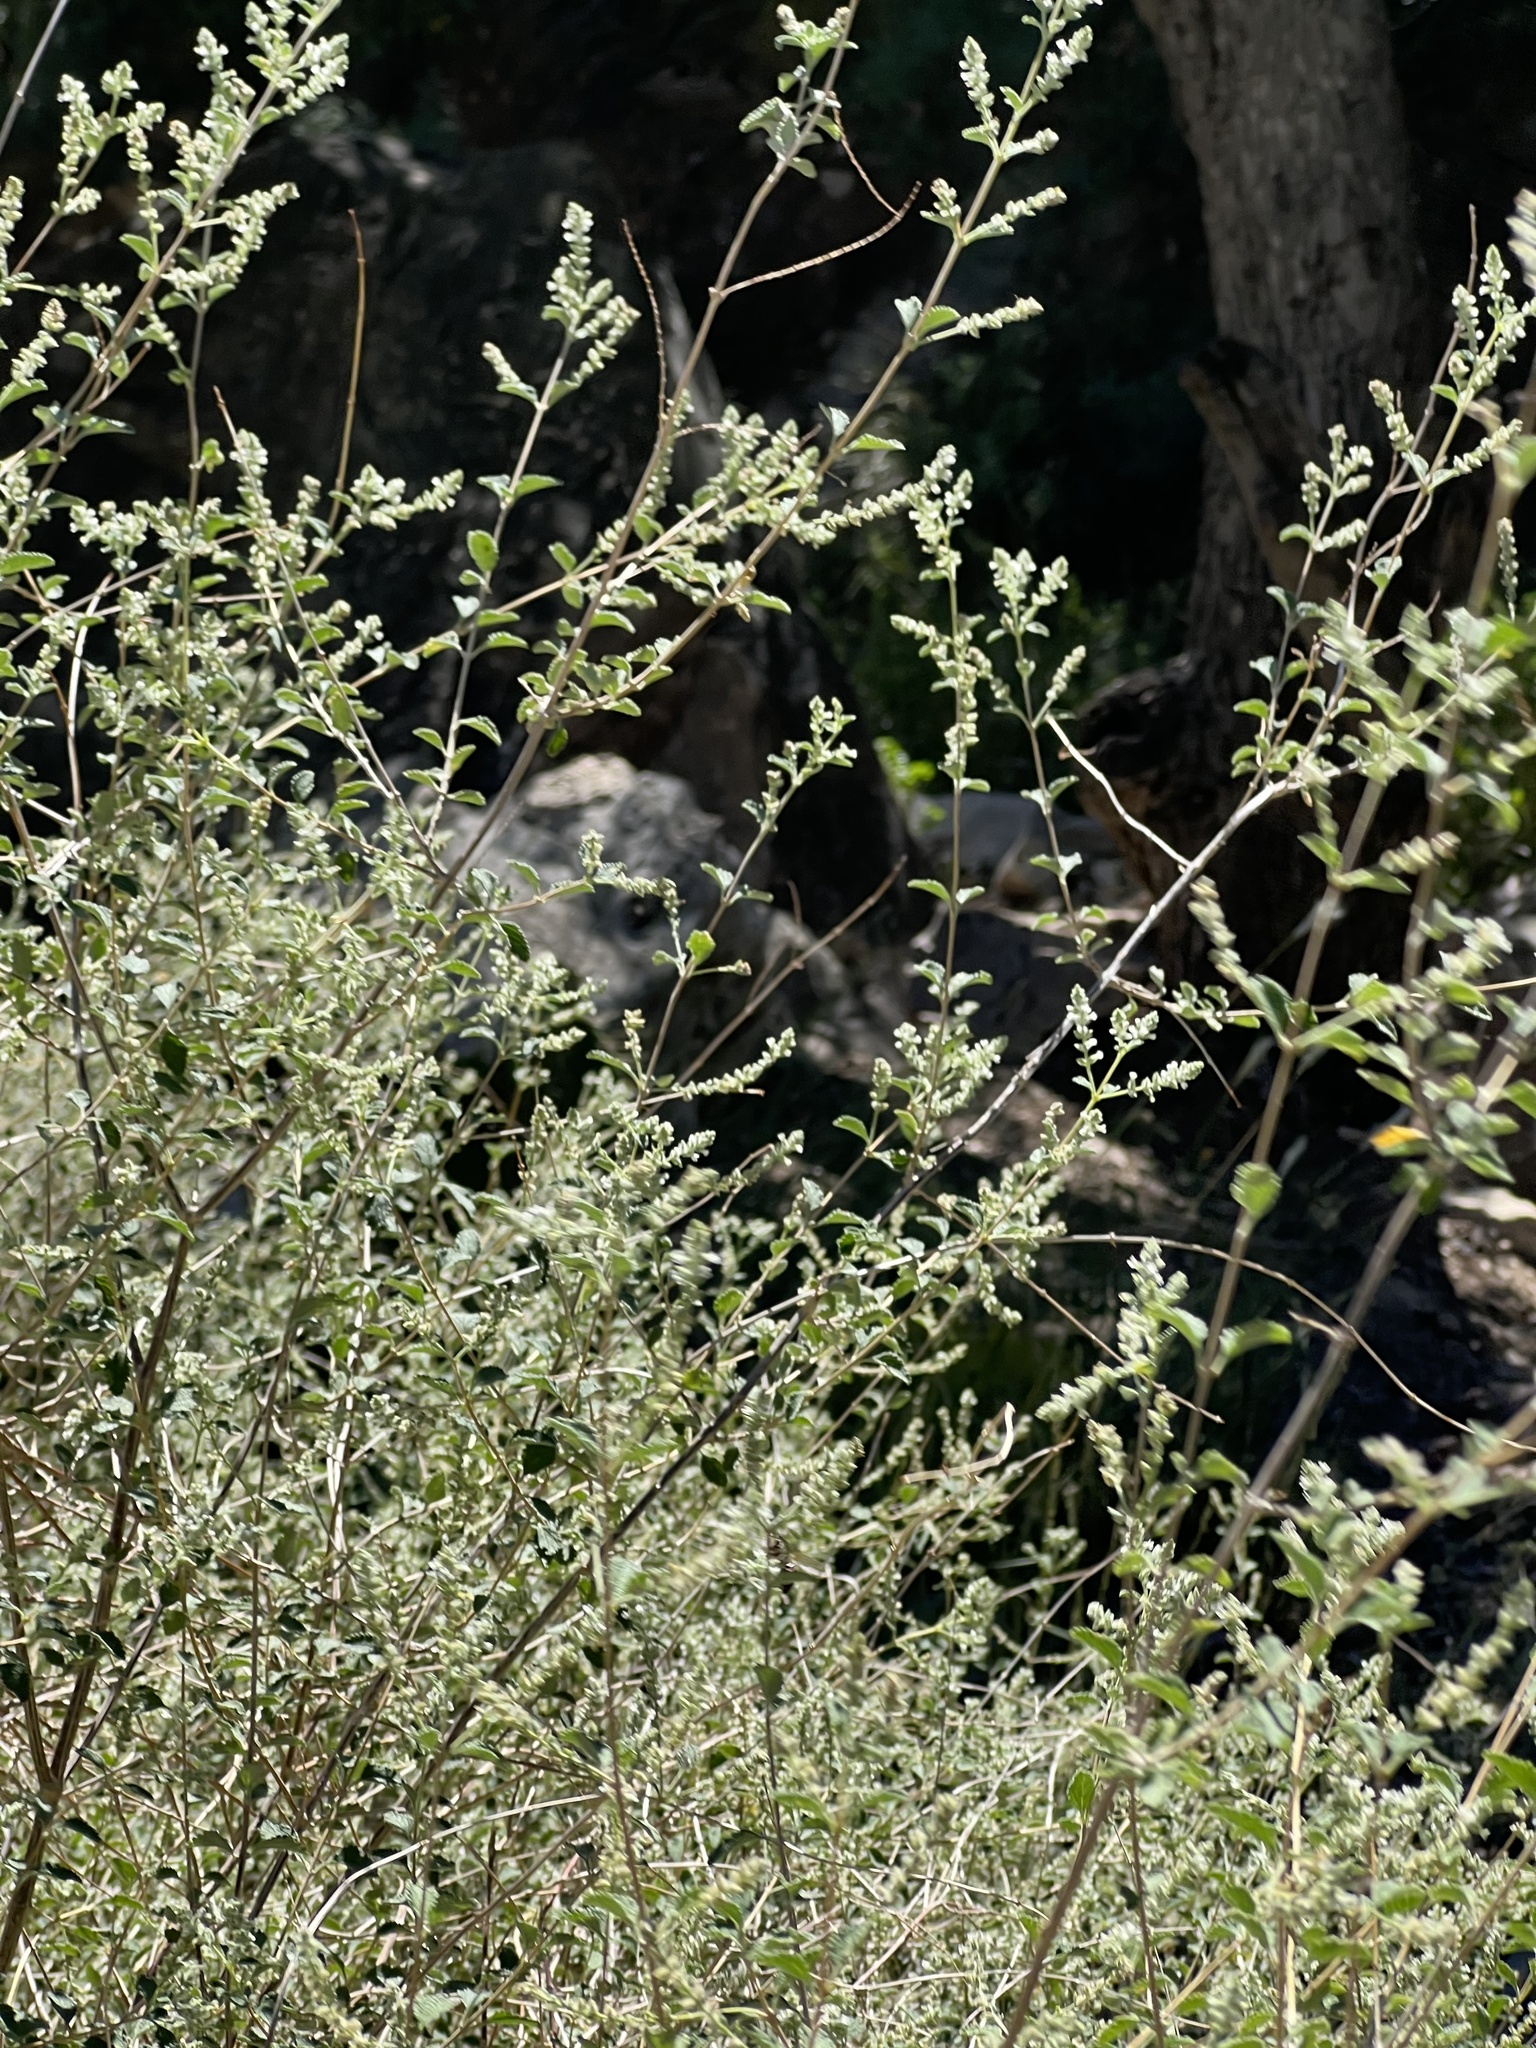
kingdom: Plantae
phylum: Tracheophyta
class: Magnoliopsida
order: Lamiales
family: Verbenaceae
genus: Aloysia
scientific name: Aloysia wrightii
